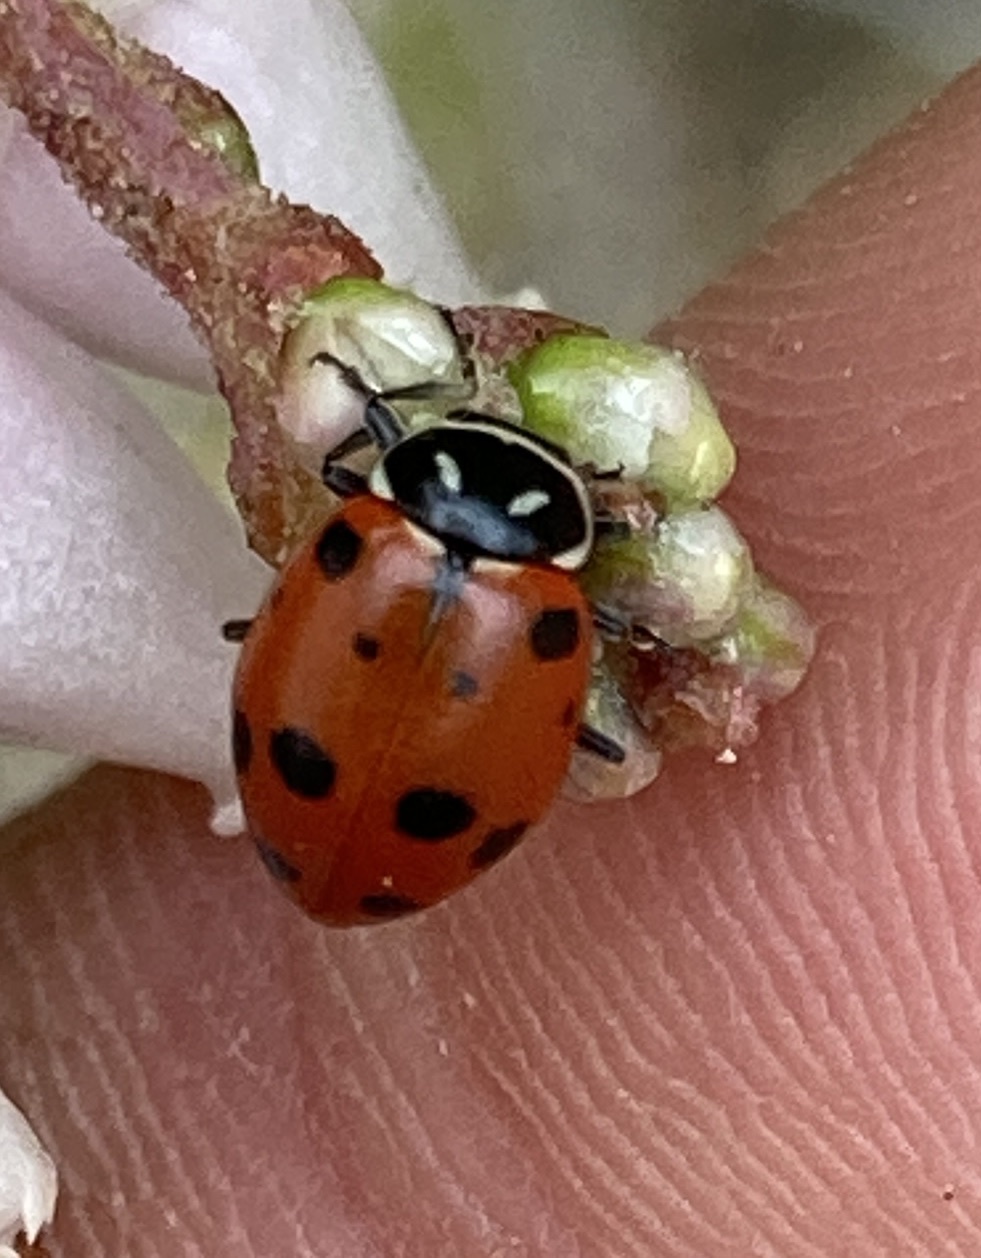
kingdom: Animalia
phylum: Arthropoda
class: Insecta
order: Coleoptera
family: Coccinellidae
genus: Hippodamia
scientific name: Hippodamia convergens
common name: Convergent lady beetle
